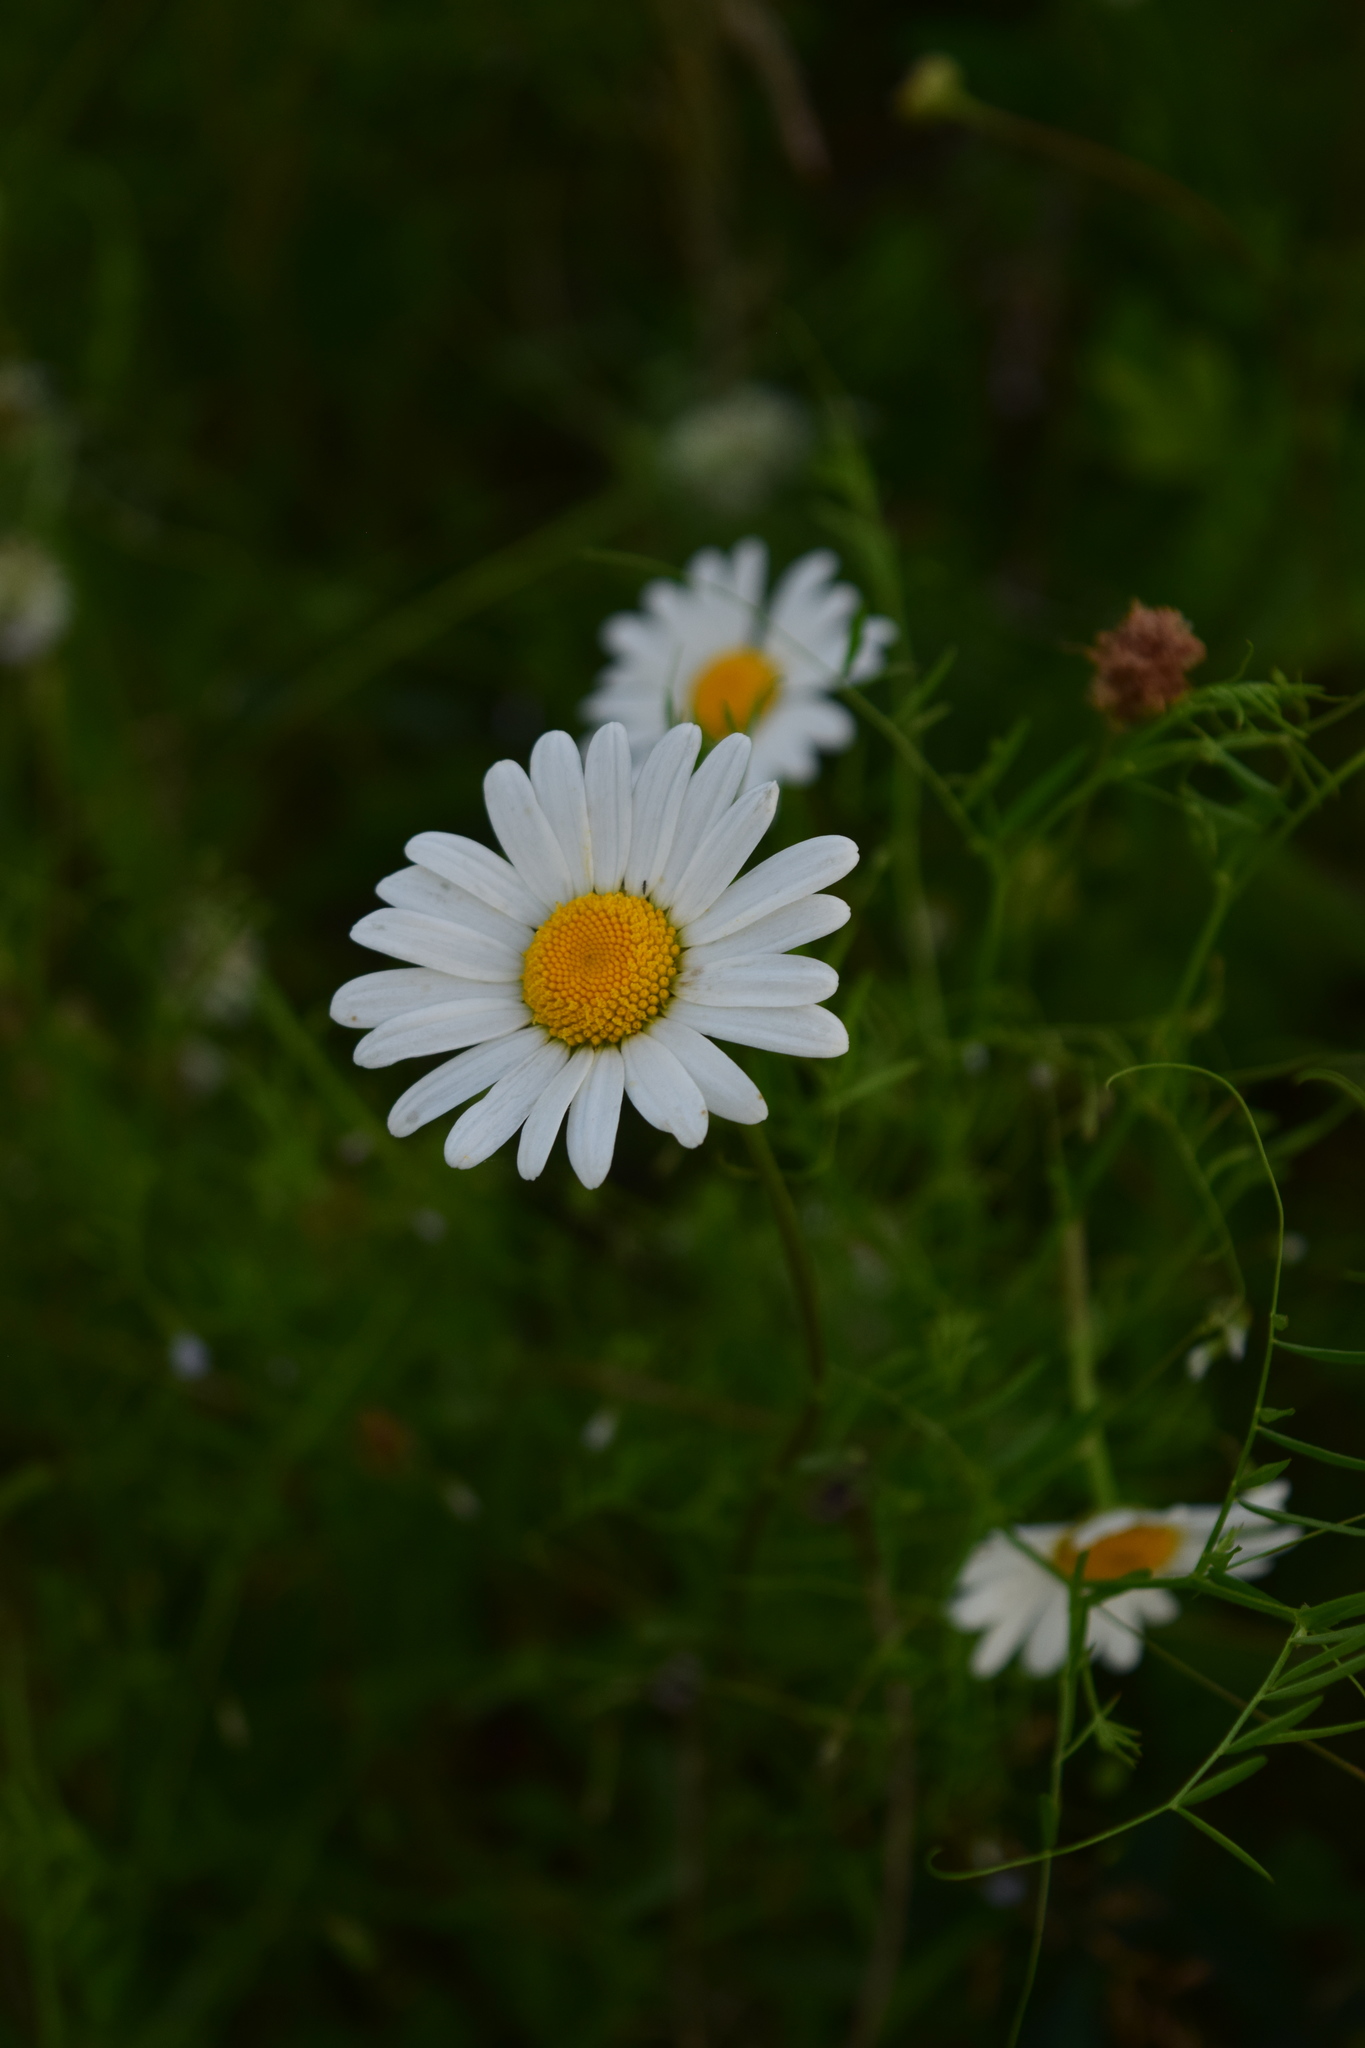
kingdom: Plantae
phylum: Tracheophyta
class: Magnoliopsida
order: Asterales
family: Asteraceae
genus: Leucanthemum
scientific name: Leucanthemum vulgare
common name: Oxeye daisy
